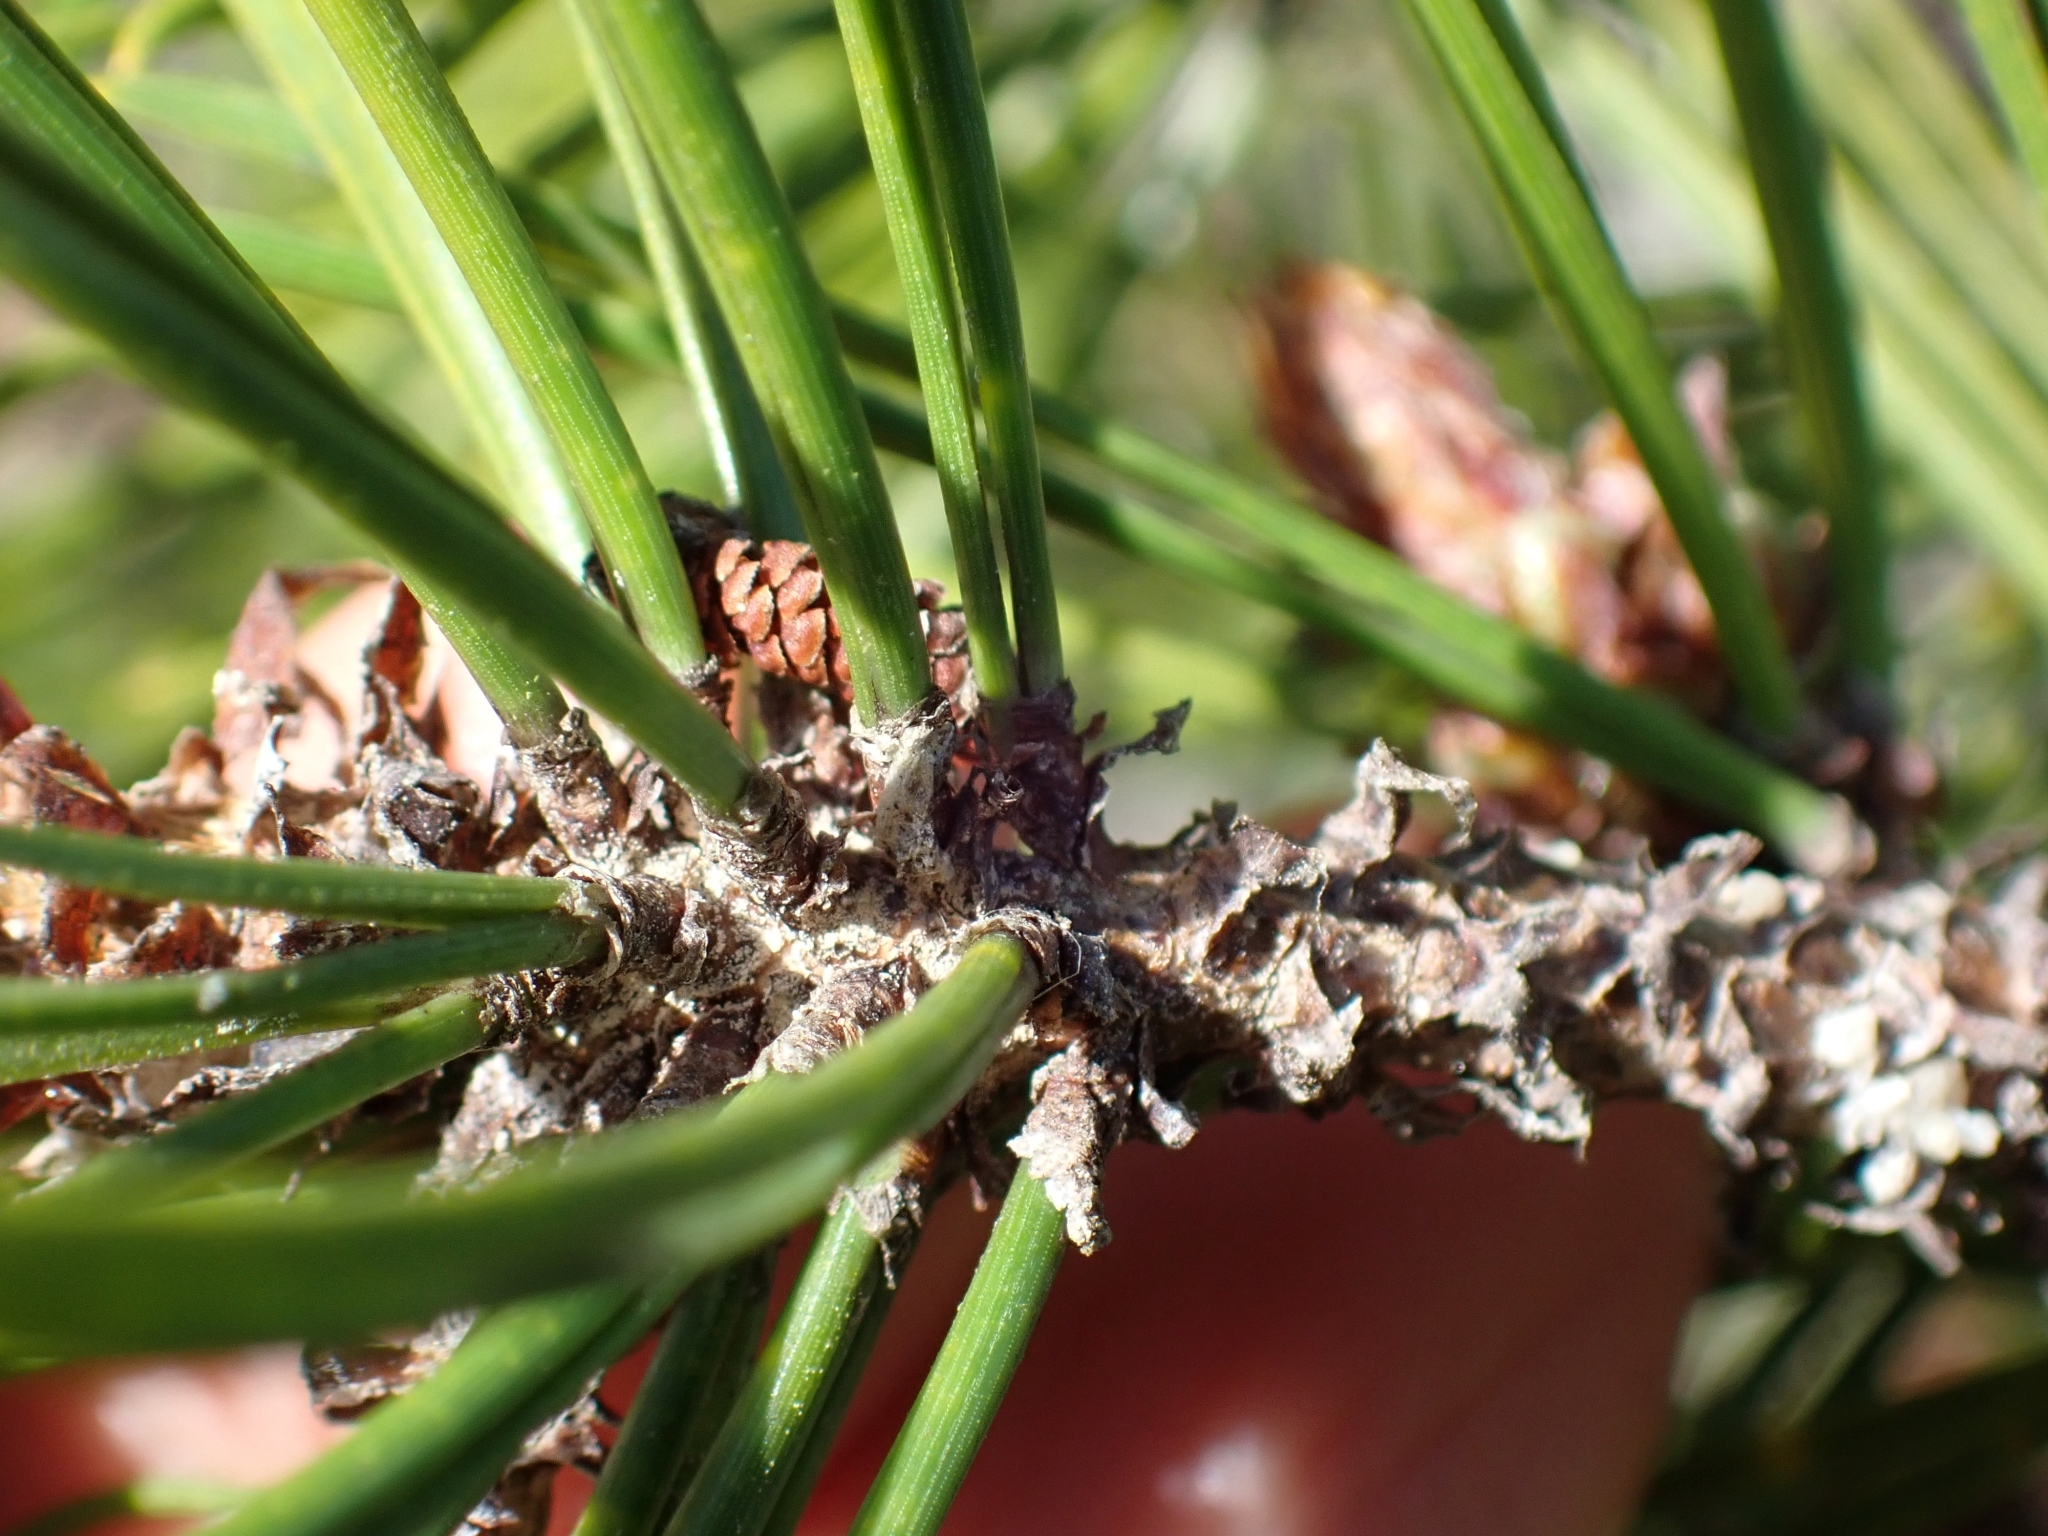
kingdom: Plantae
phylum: Tracheophyta
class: Pinopsida
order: Pinales
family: Pinaceae
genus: Pinus
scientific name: Pinus contorta
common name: Lodgepole pine
